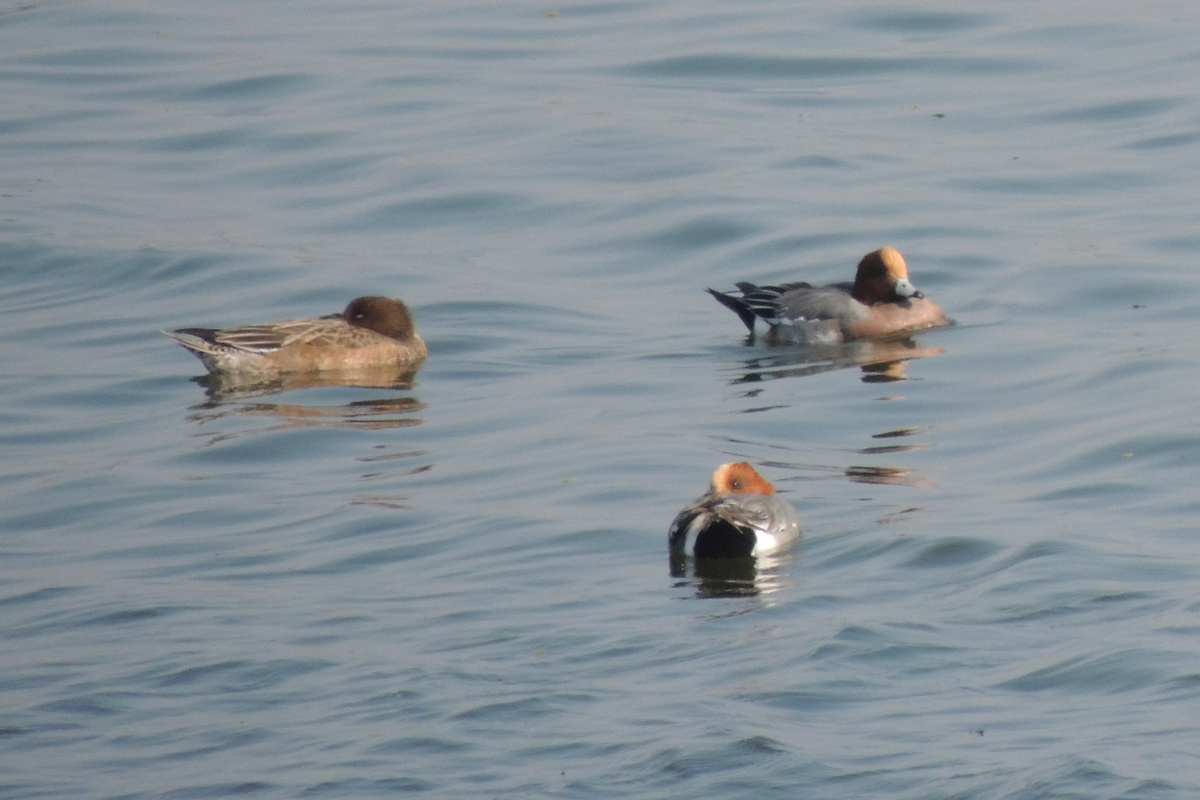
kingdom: Animalia
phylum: Chordata
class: Aves
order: Anseriformes
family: Anatidae
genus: Mareca
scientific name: Mareca penelope
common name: Eurasian wigeon
